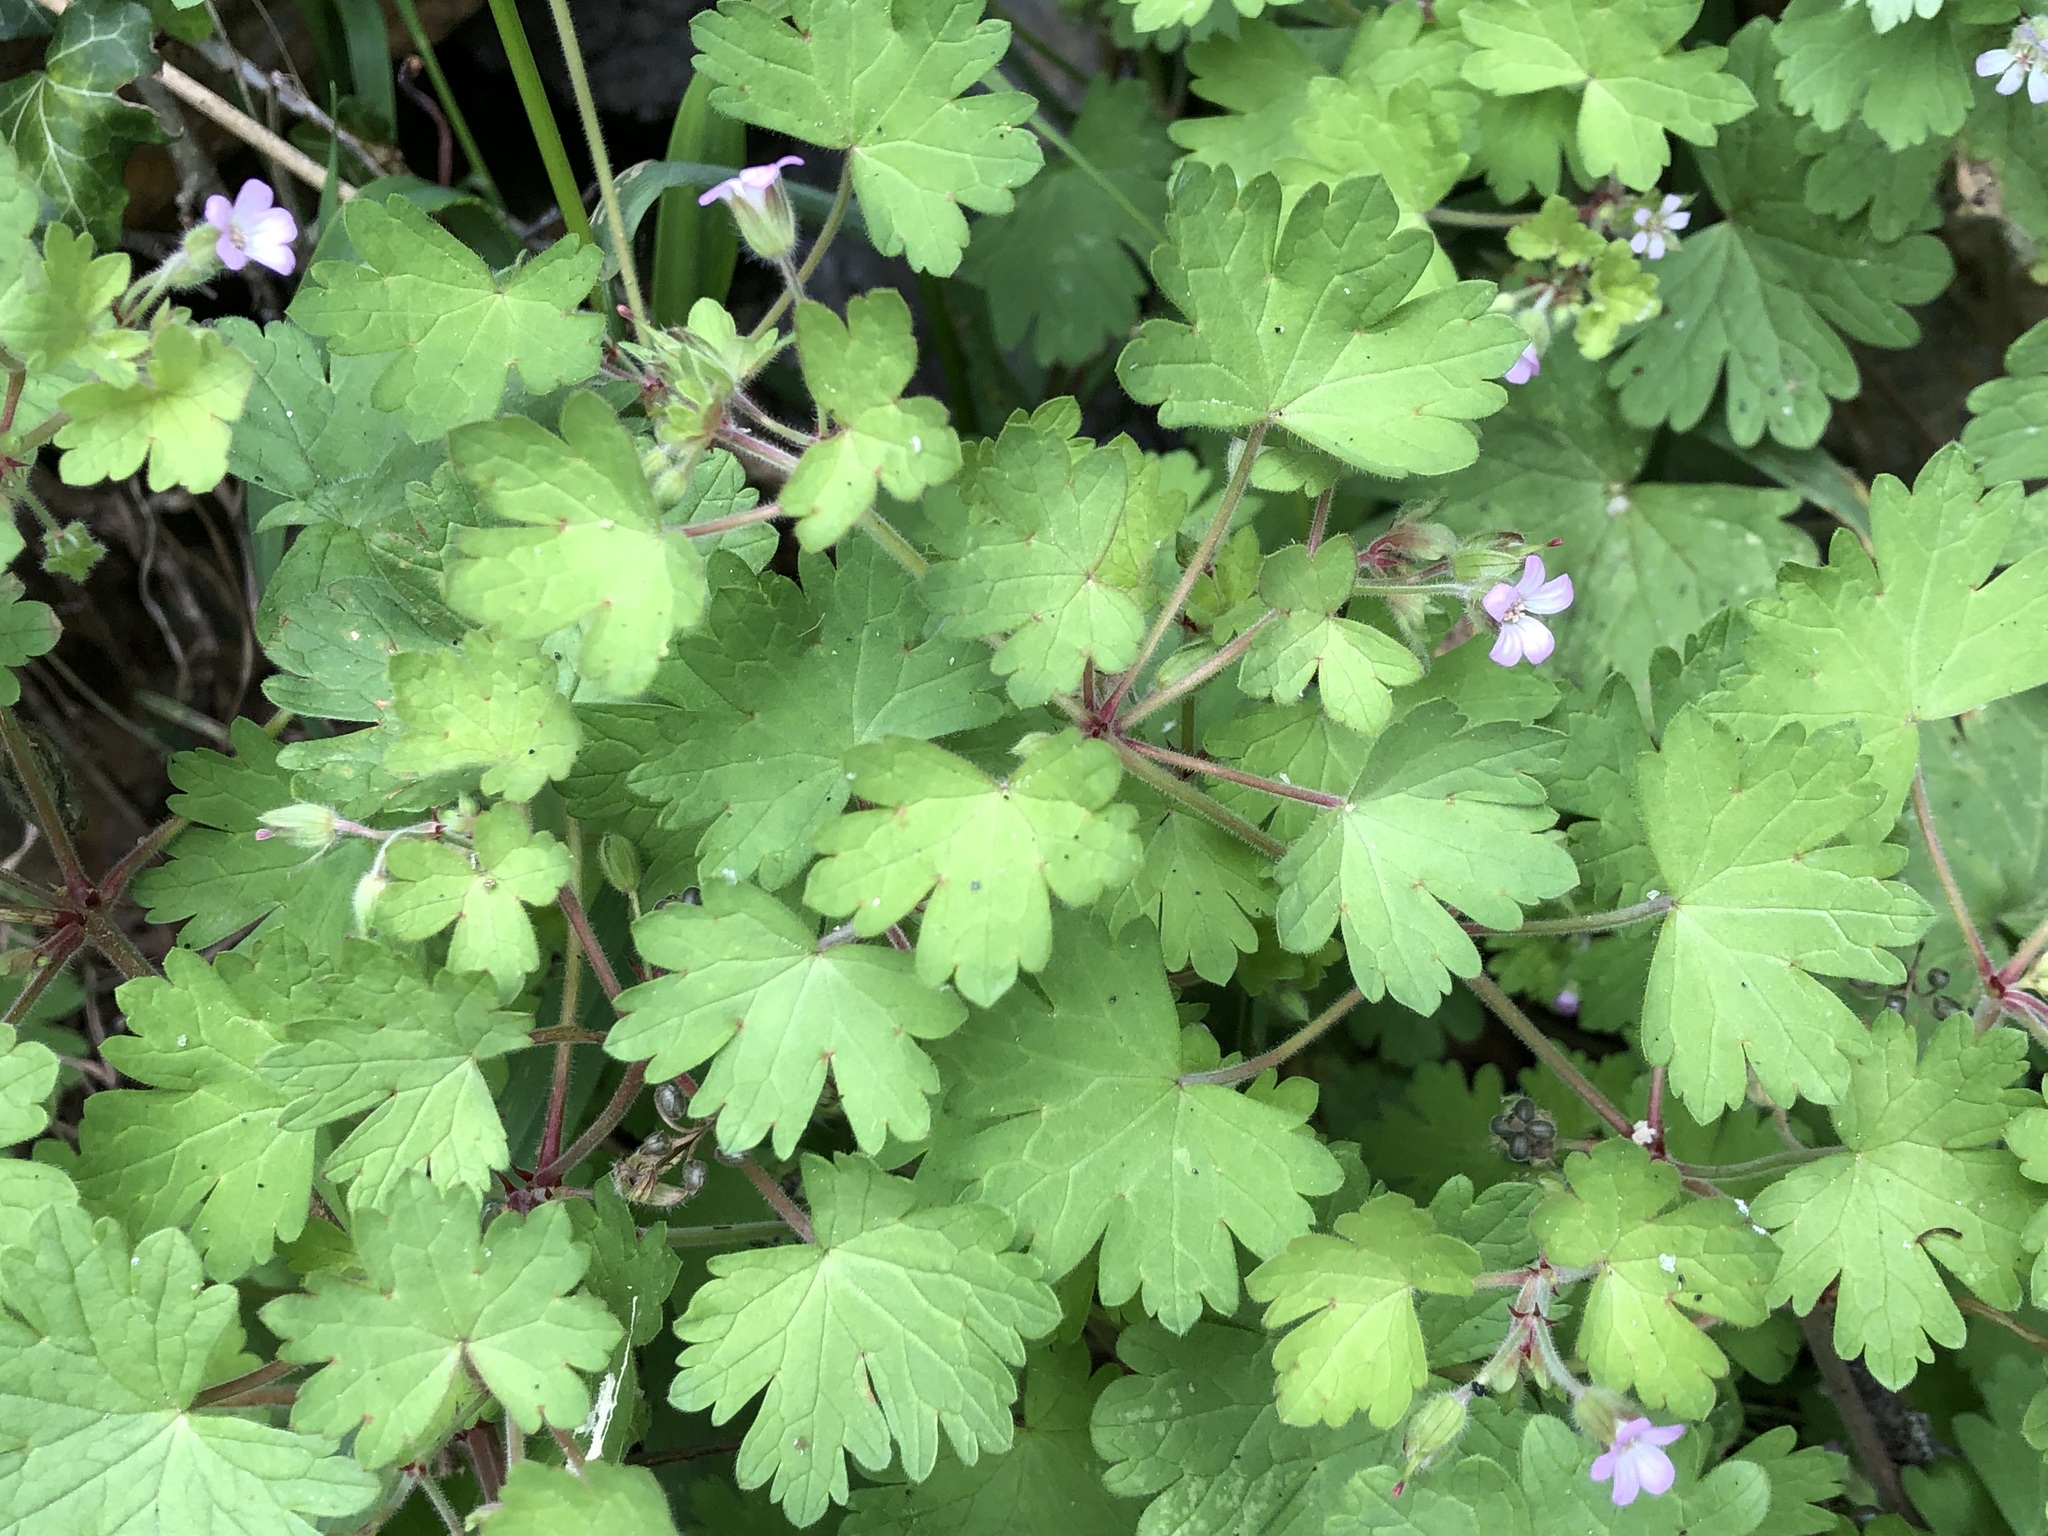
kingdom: Plantae
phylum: Tracheophyta
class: Magnoliopsida
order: Geraniales
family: Geraniaceae
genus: Geranium
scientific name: Geranium rotundifolium
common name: Round-leaved crane's-bill
